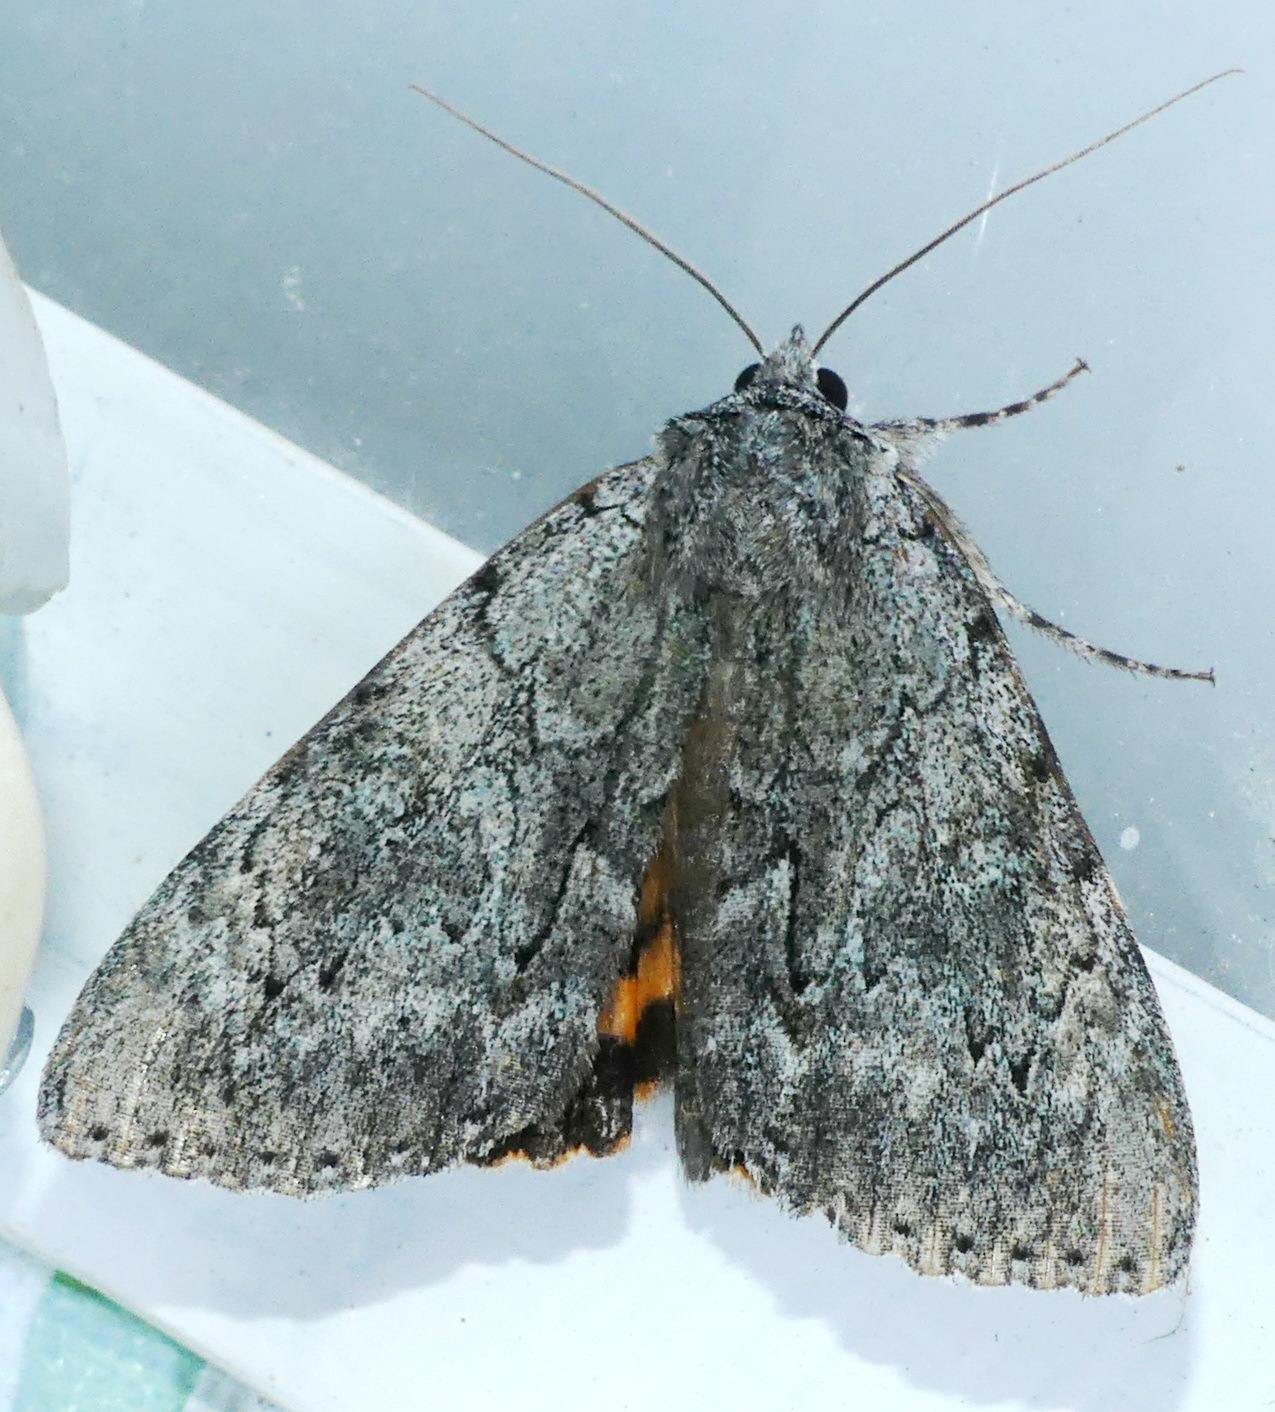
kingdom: Animalia
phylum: Arthropoda
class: Insecta
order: Lepidoptera
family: Erebidae
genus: Catocala
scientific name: Catocala habilis
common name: Habilis underwing
